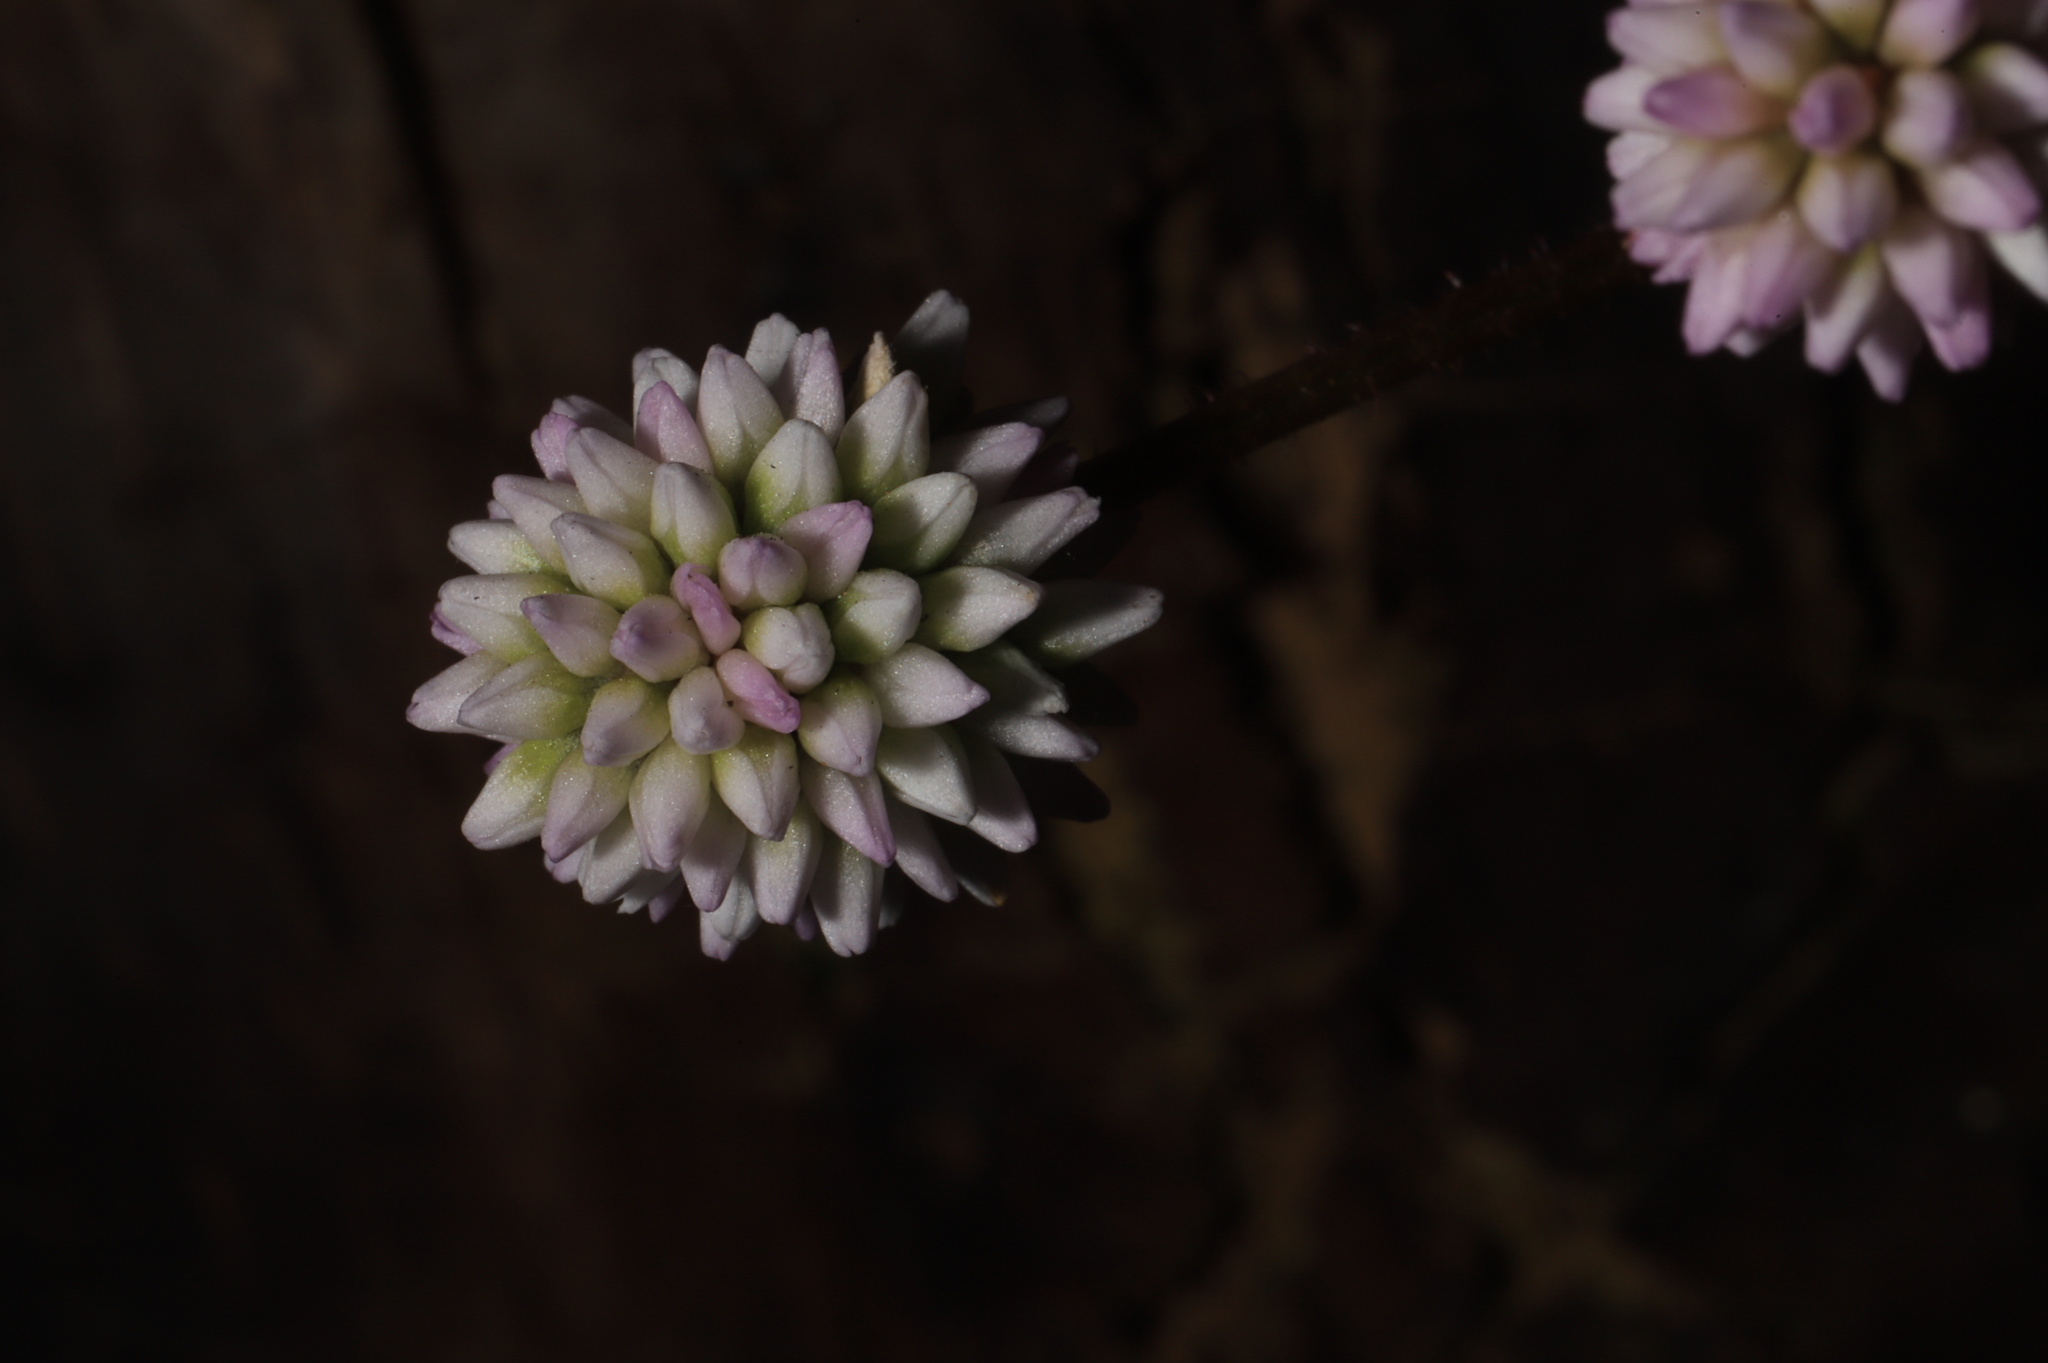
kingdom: Plantae
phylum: Tracheophyta
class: Magnoliopsida
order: Caryophyllales
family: Polygonaceae
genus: Persicaria
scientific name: Persicaria capitata
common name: Pinkhead smartweed
